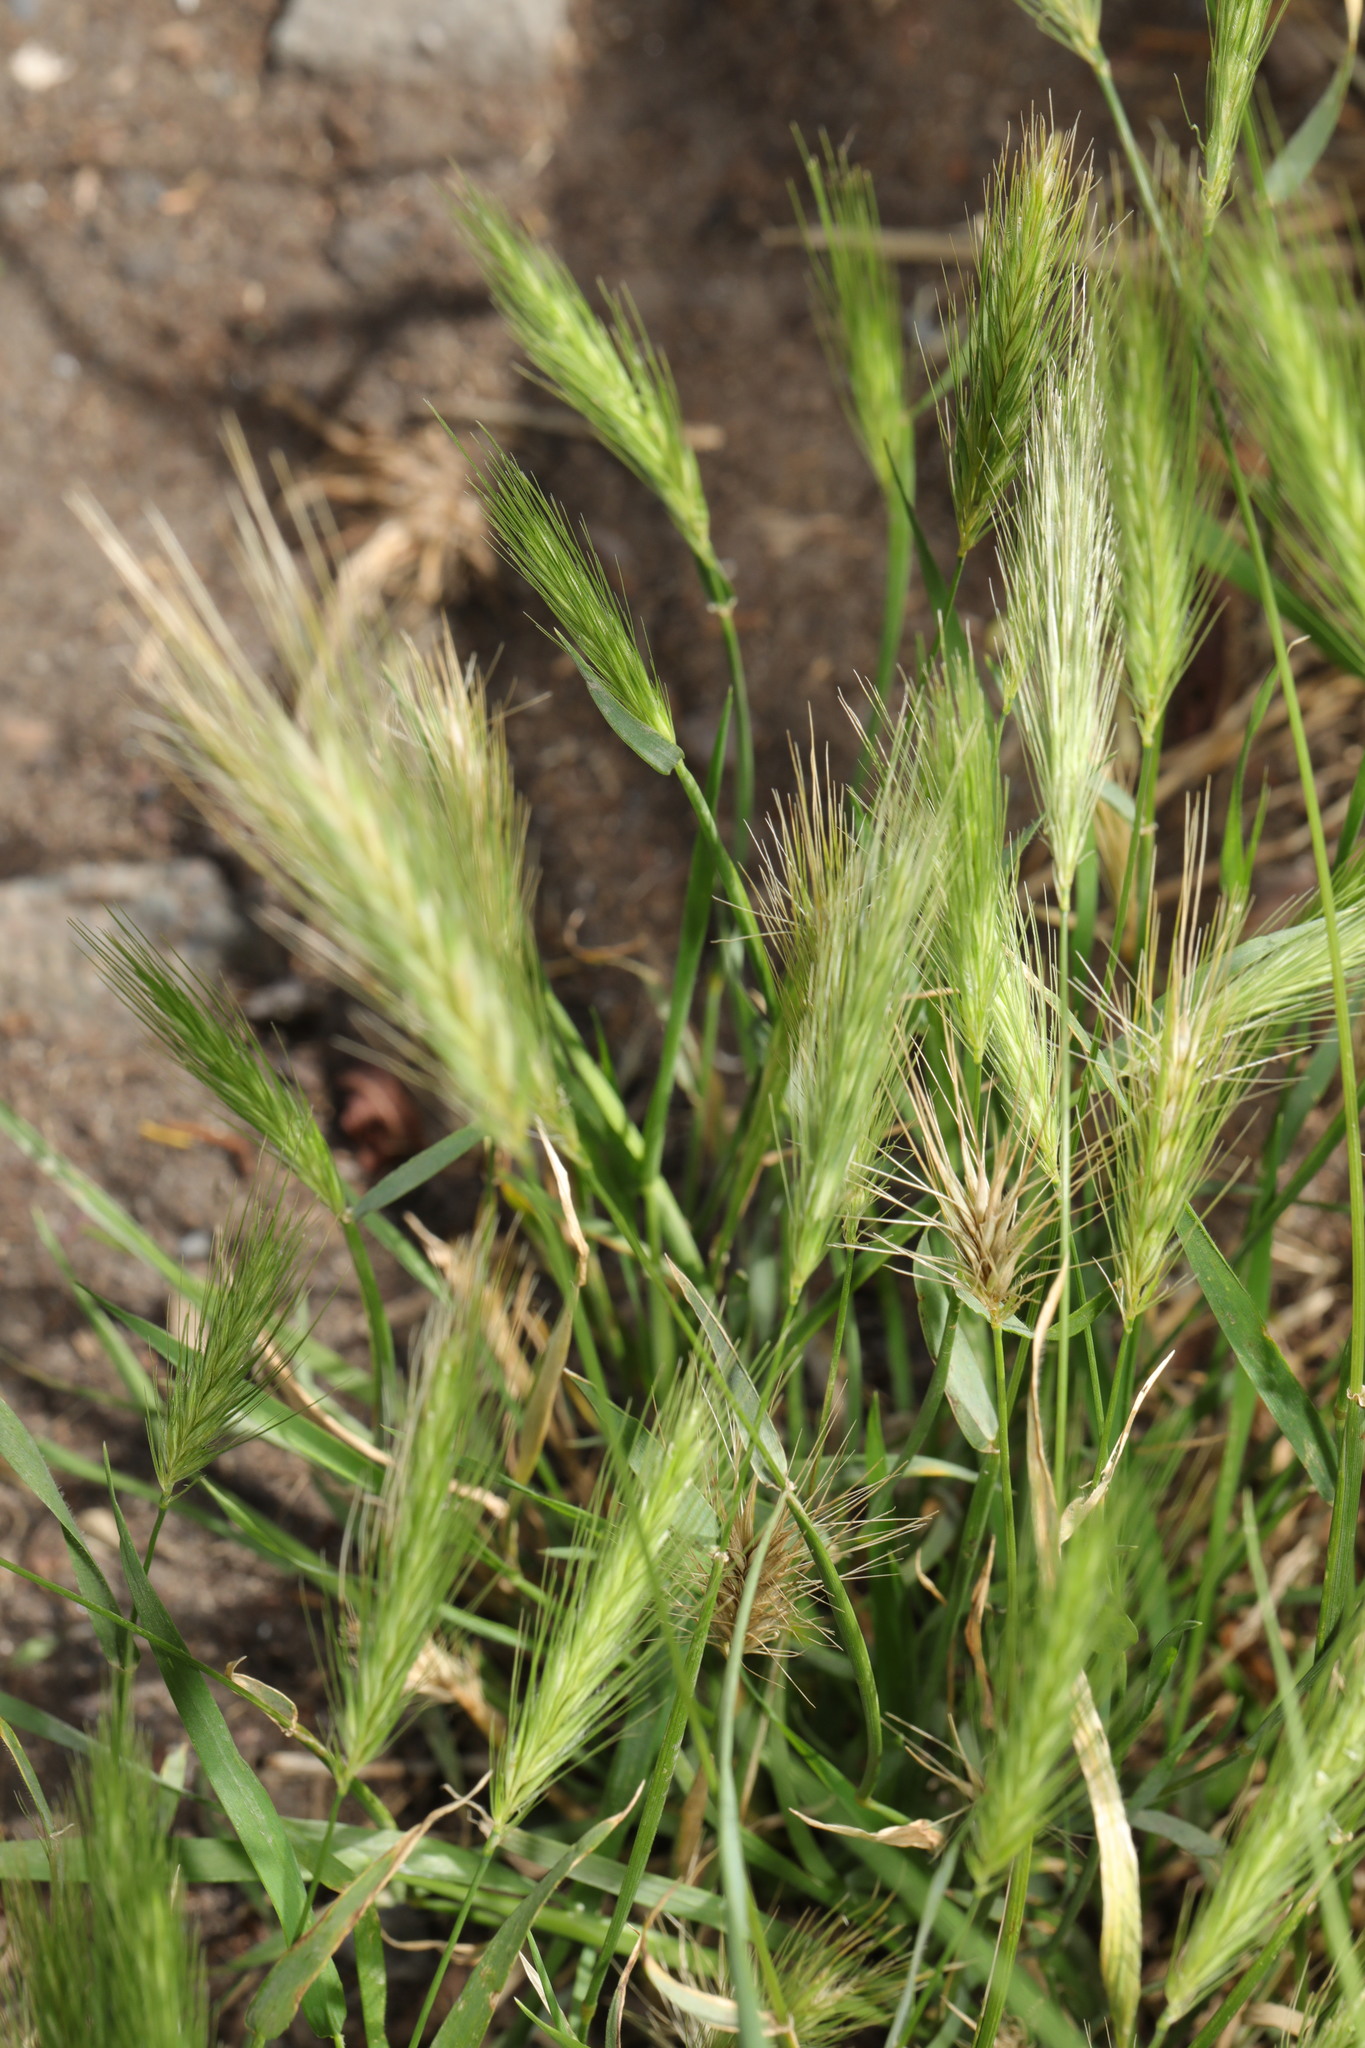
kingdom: Plantae
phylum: Tracheophyta
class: Liliopsida
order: Poales
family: Poaceae
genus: Hordeum
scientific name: Hordeum murinum
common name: Wall barley
